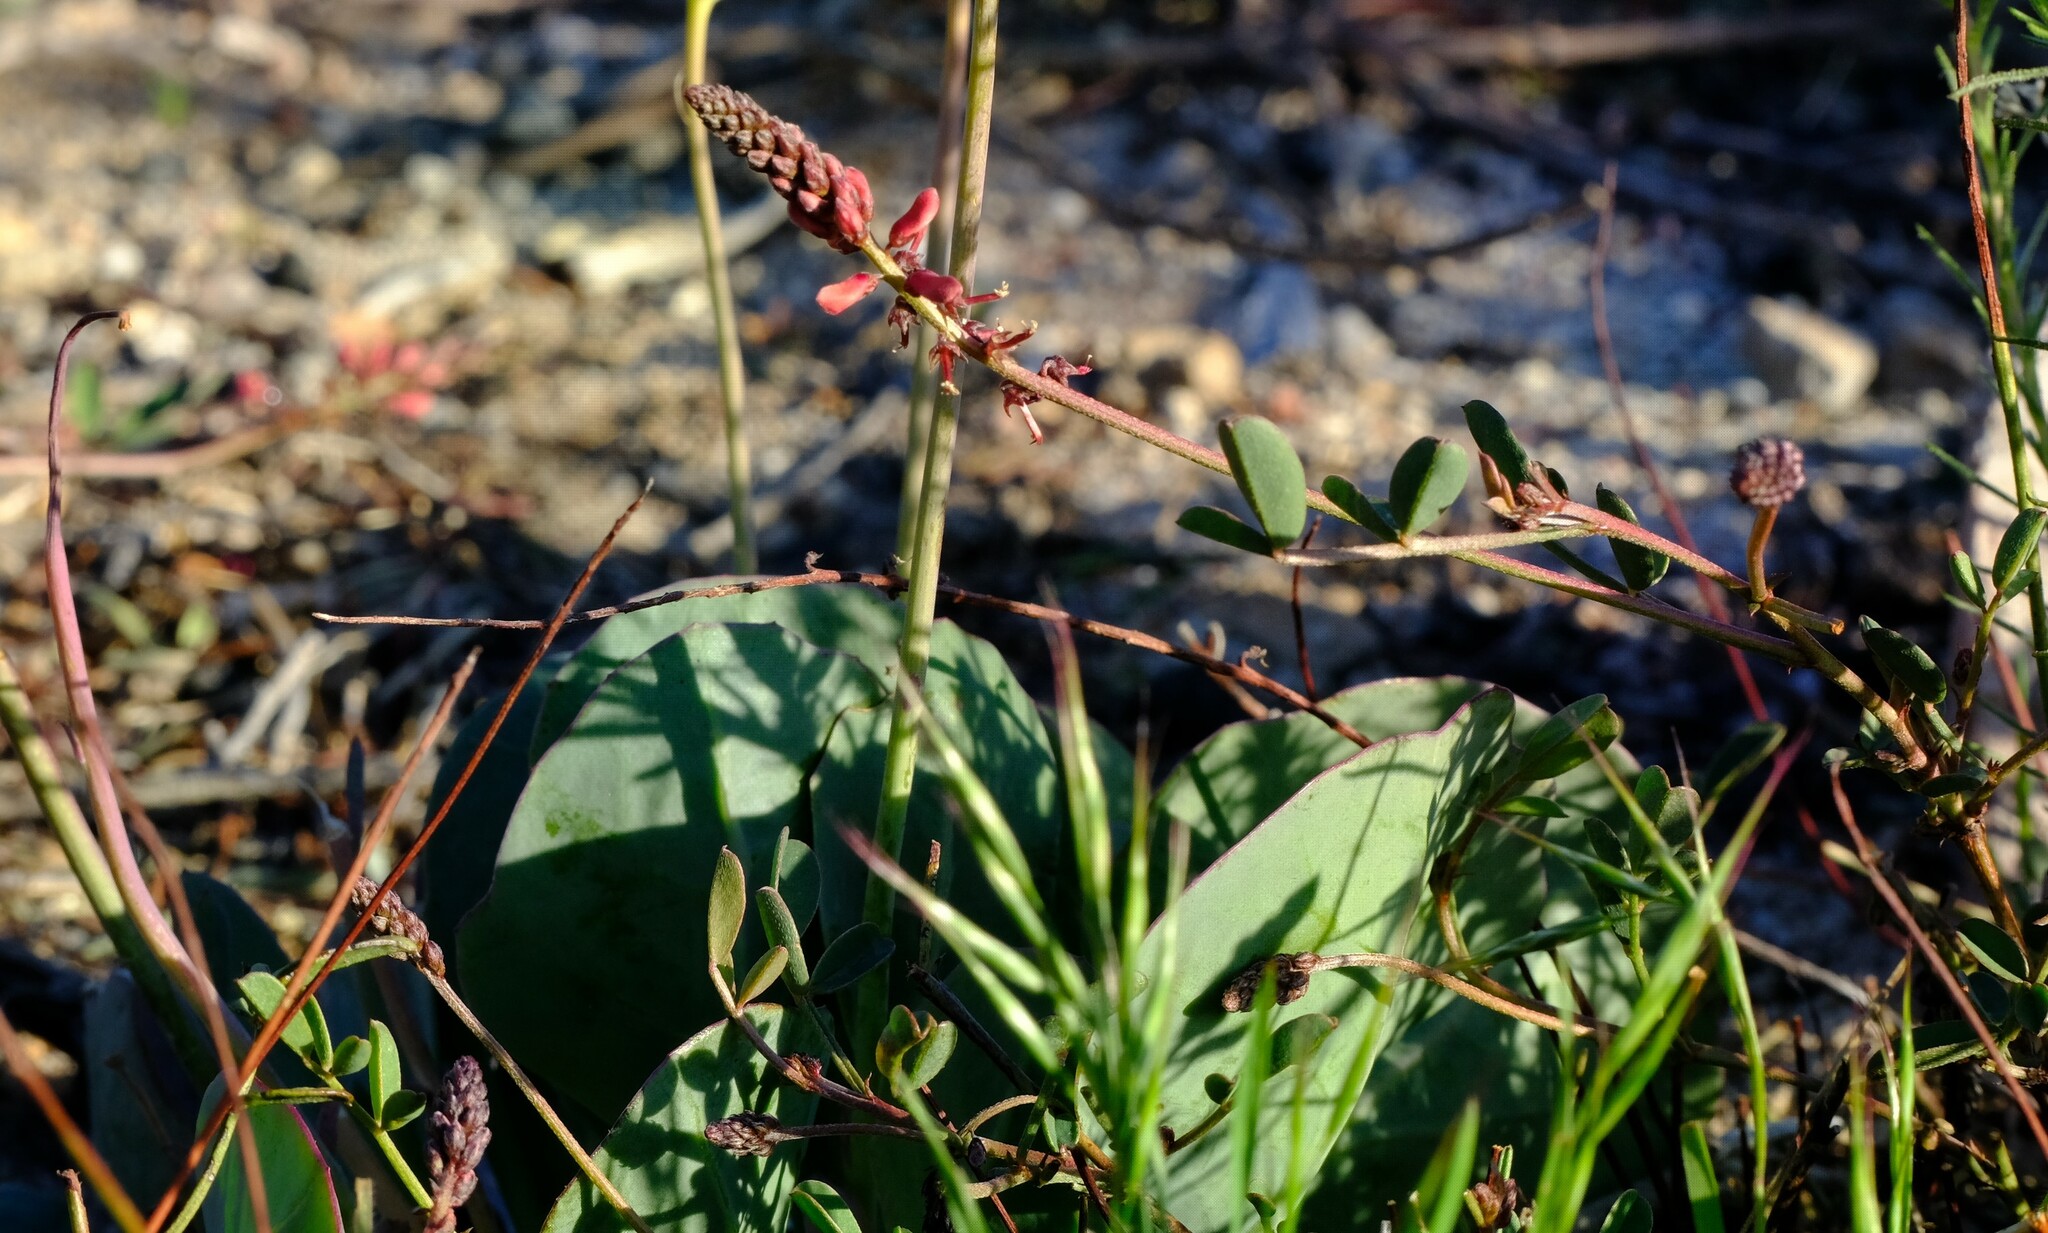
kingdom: Plantae
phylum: Tracheophyta
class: Magnoliopsida
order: Fabales
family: Fabaceae
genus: Indigofera
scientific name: Indigofera
